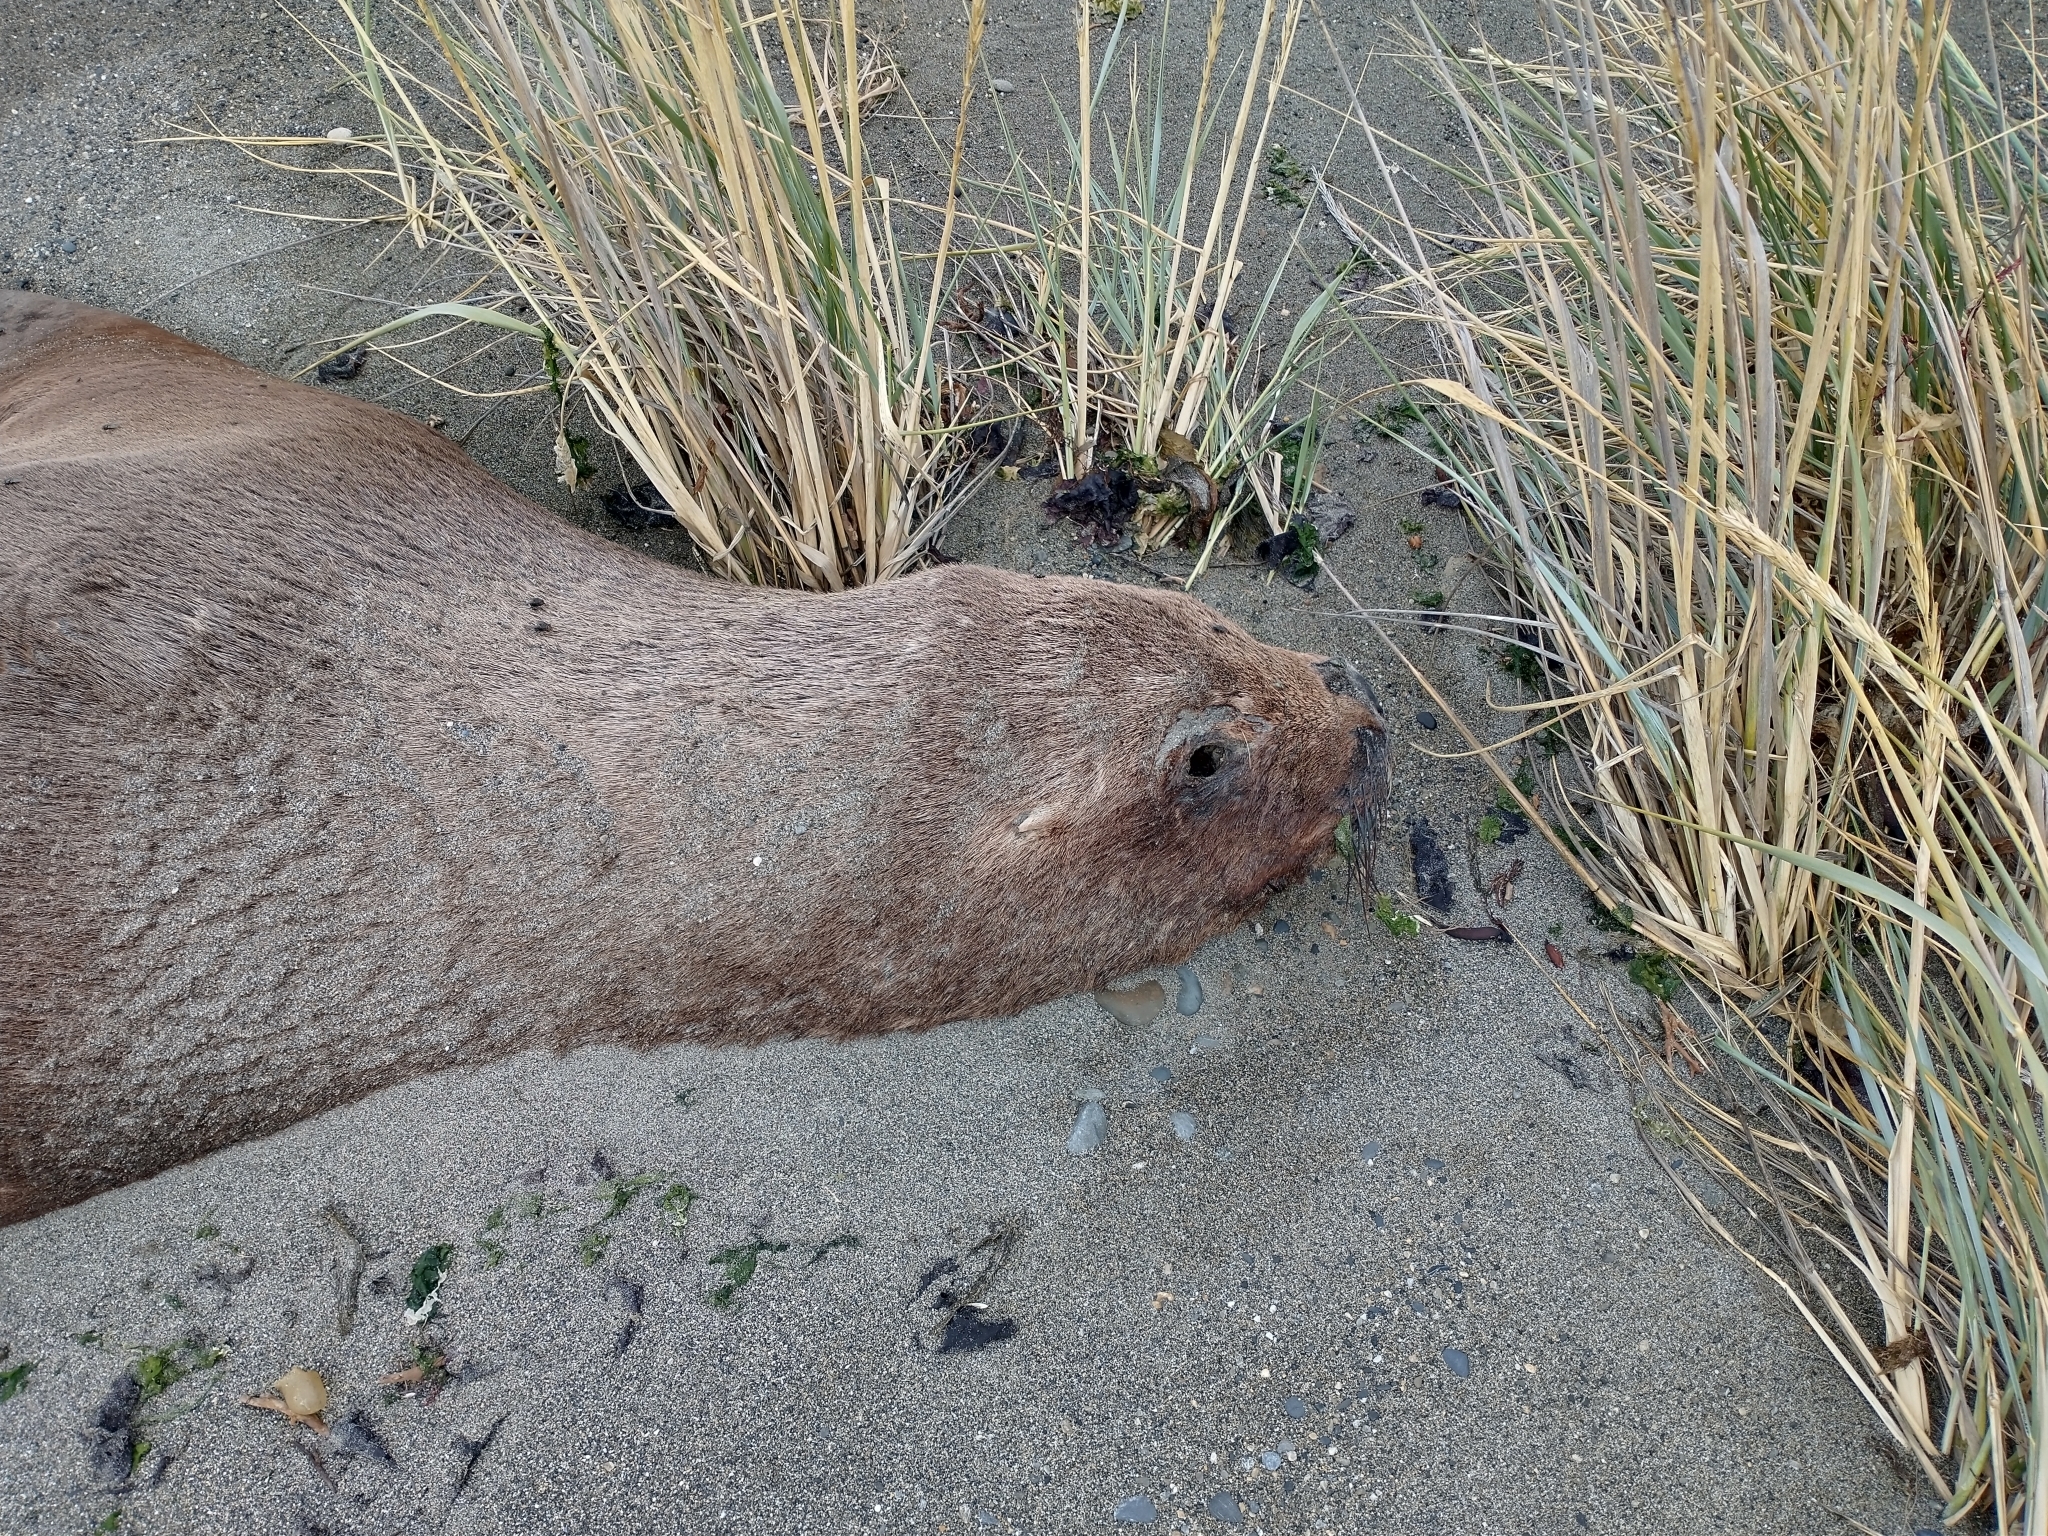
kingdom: Animalia
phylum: Chordata
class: Mammalia
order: Carnivora
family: Otariidae
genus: Otaria
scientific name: Otaria byronia
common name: South american sea lion
